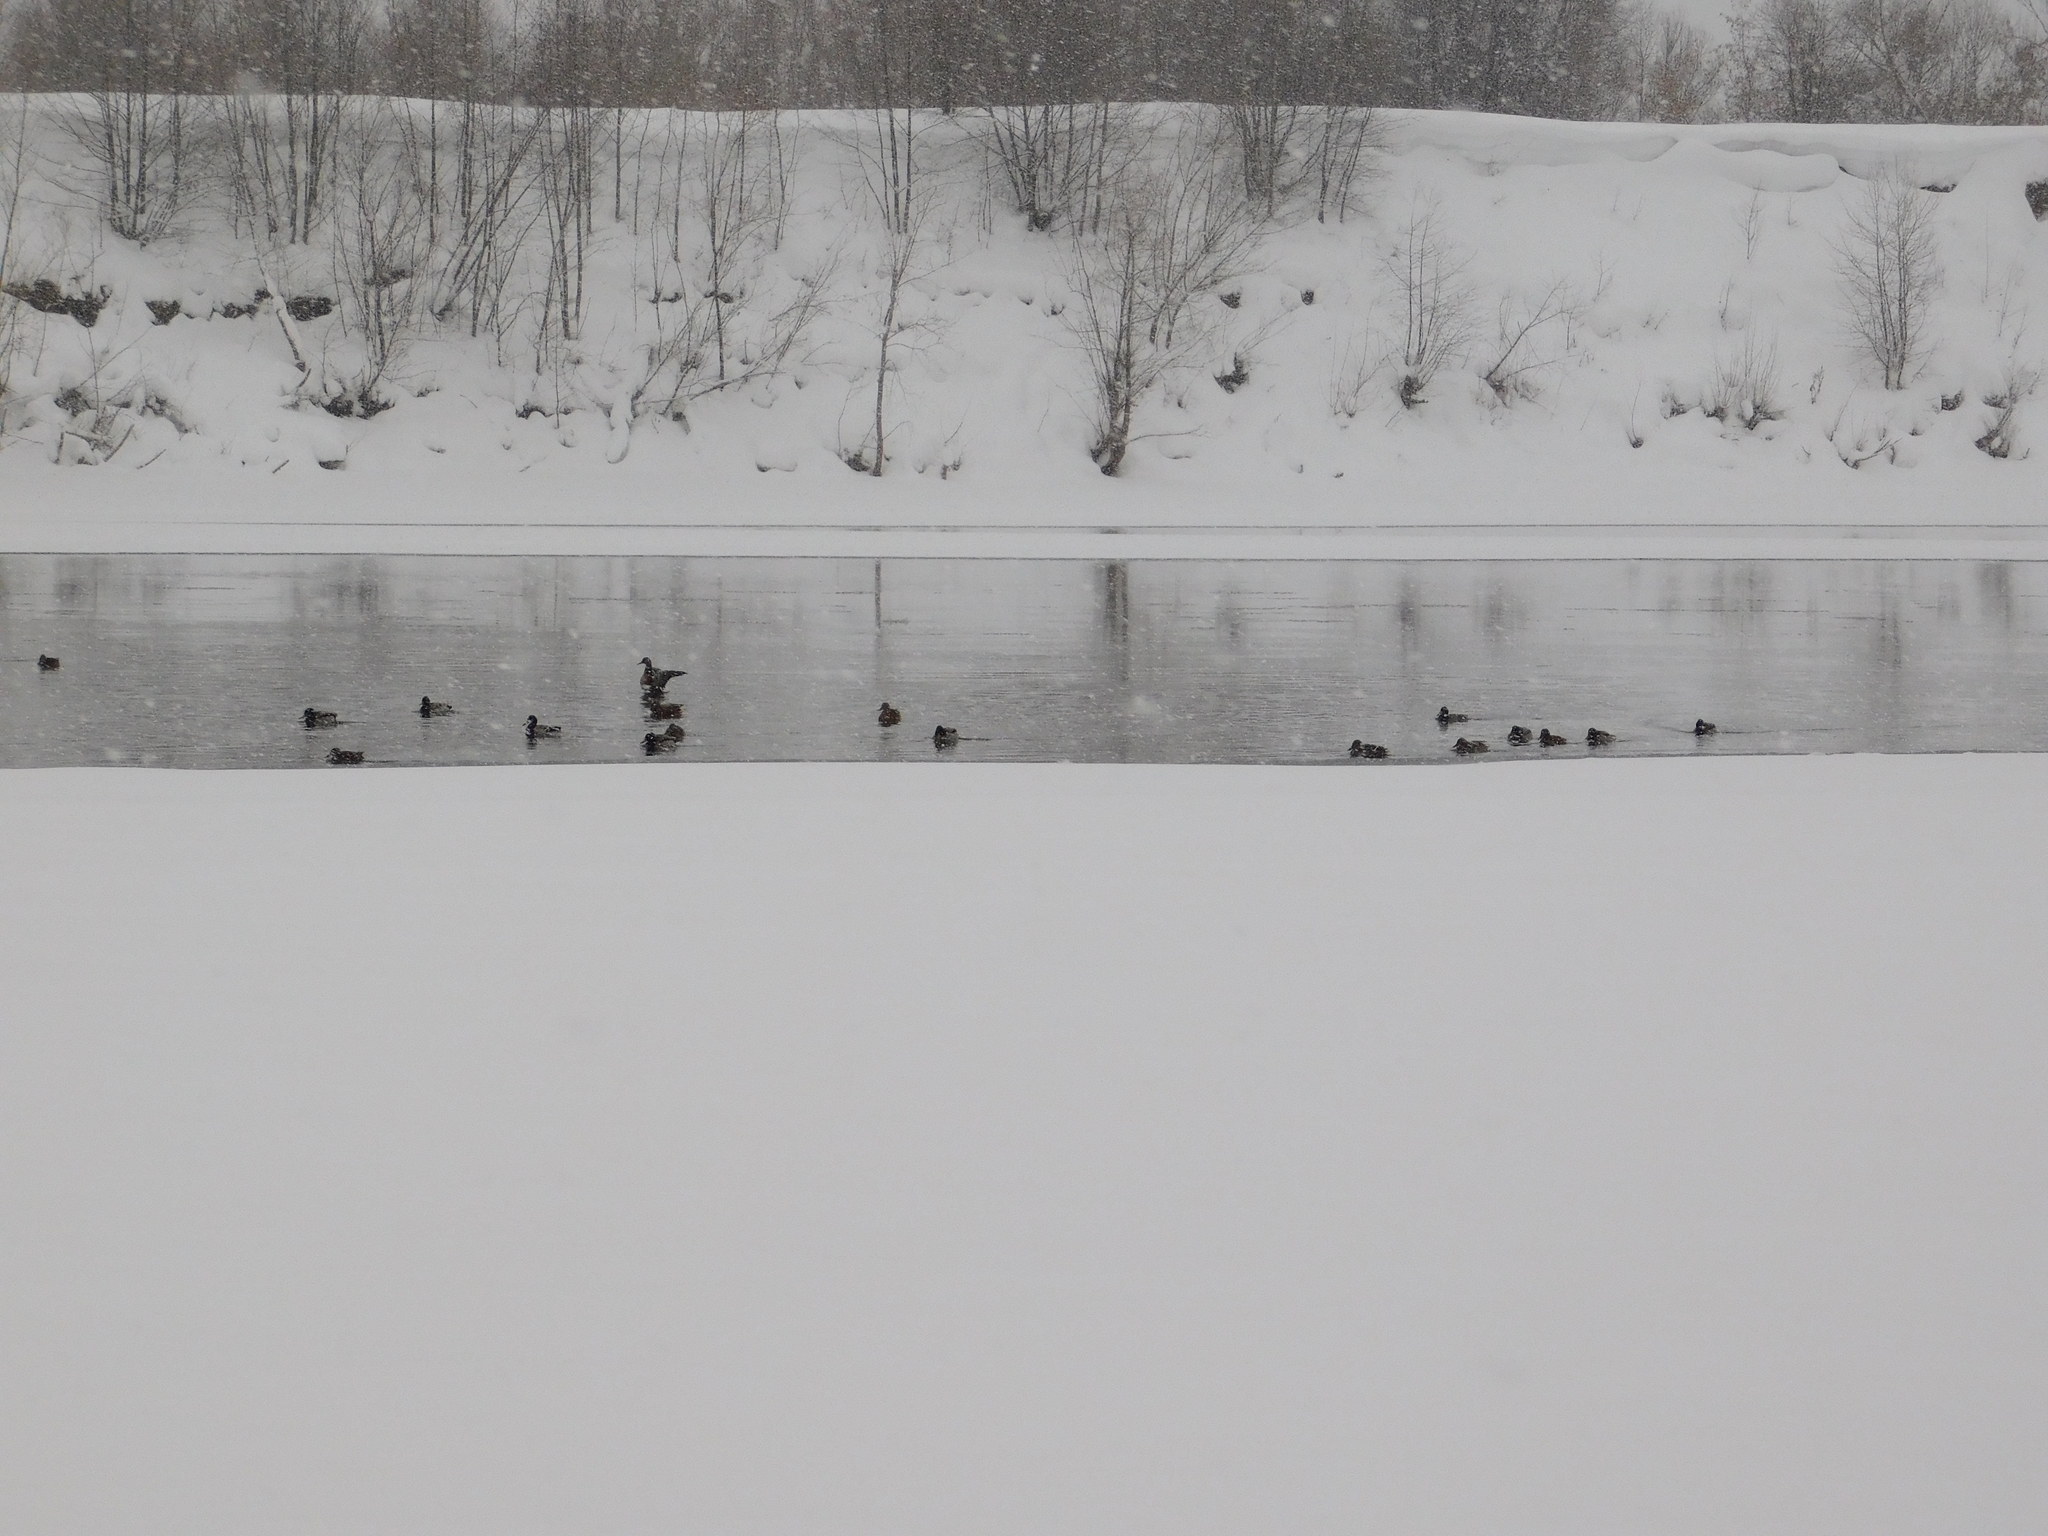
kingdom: Animalia
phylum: Chordata
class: Aves
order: Anseriformes
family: Anatidae
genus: Anas
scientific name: Anas platyrhynchos
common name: Mallard
